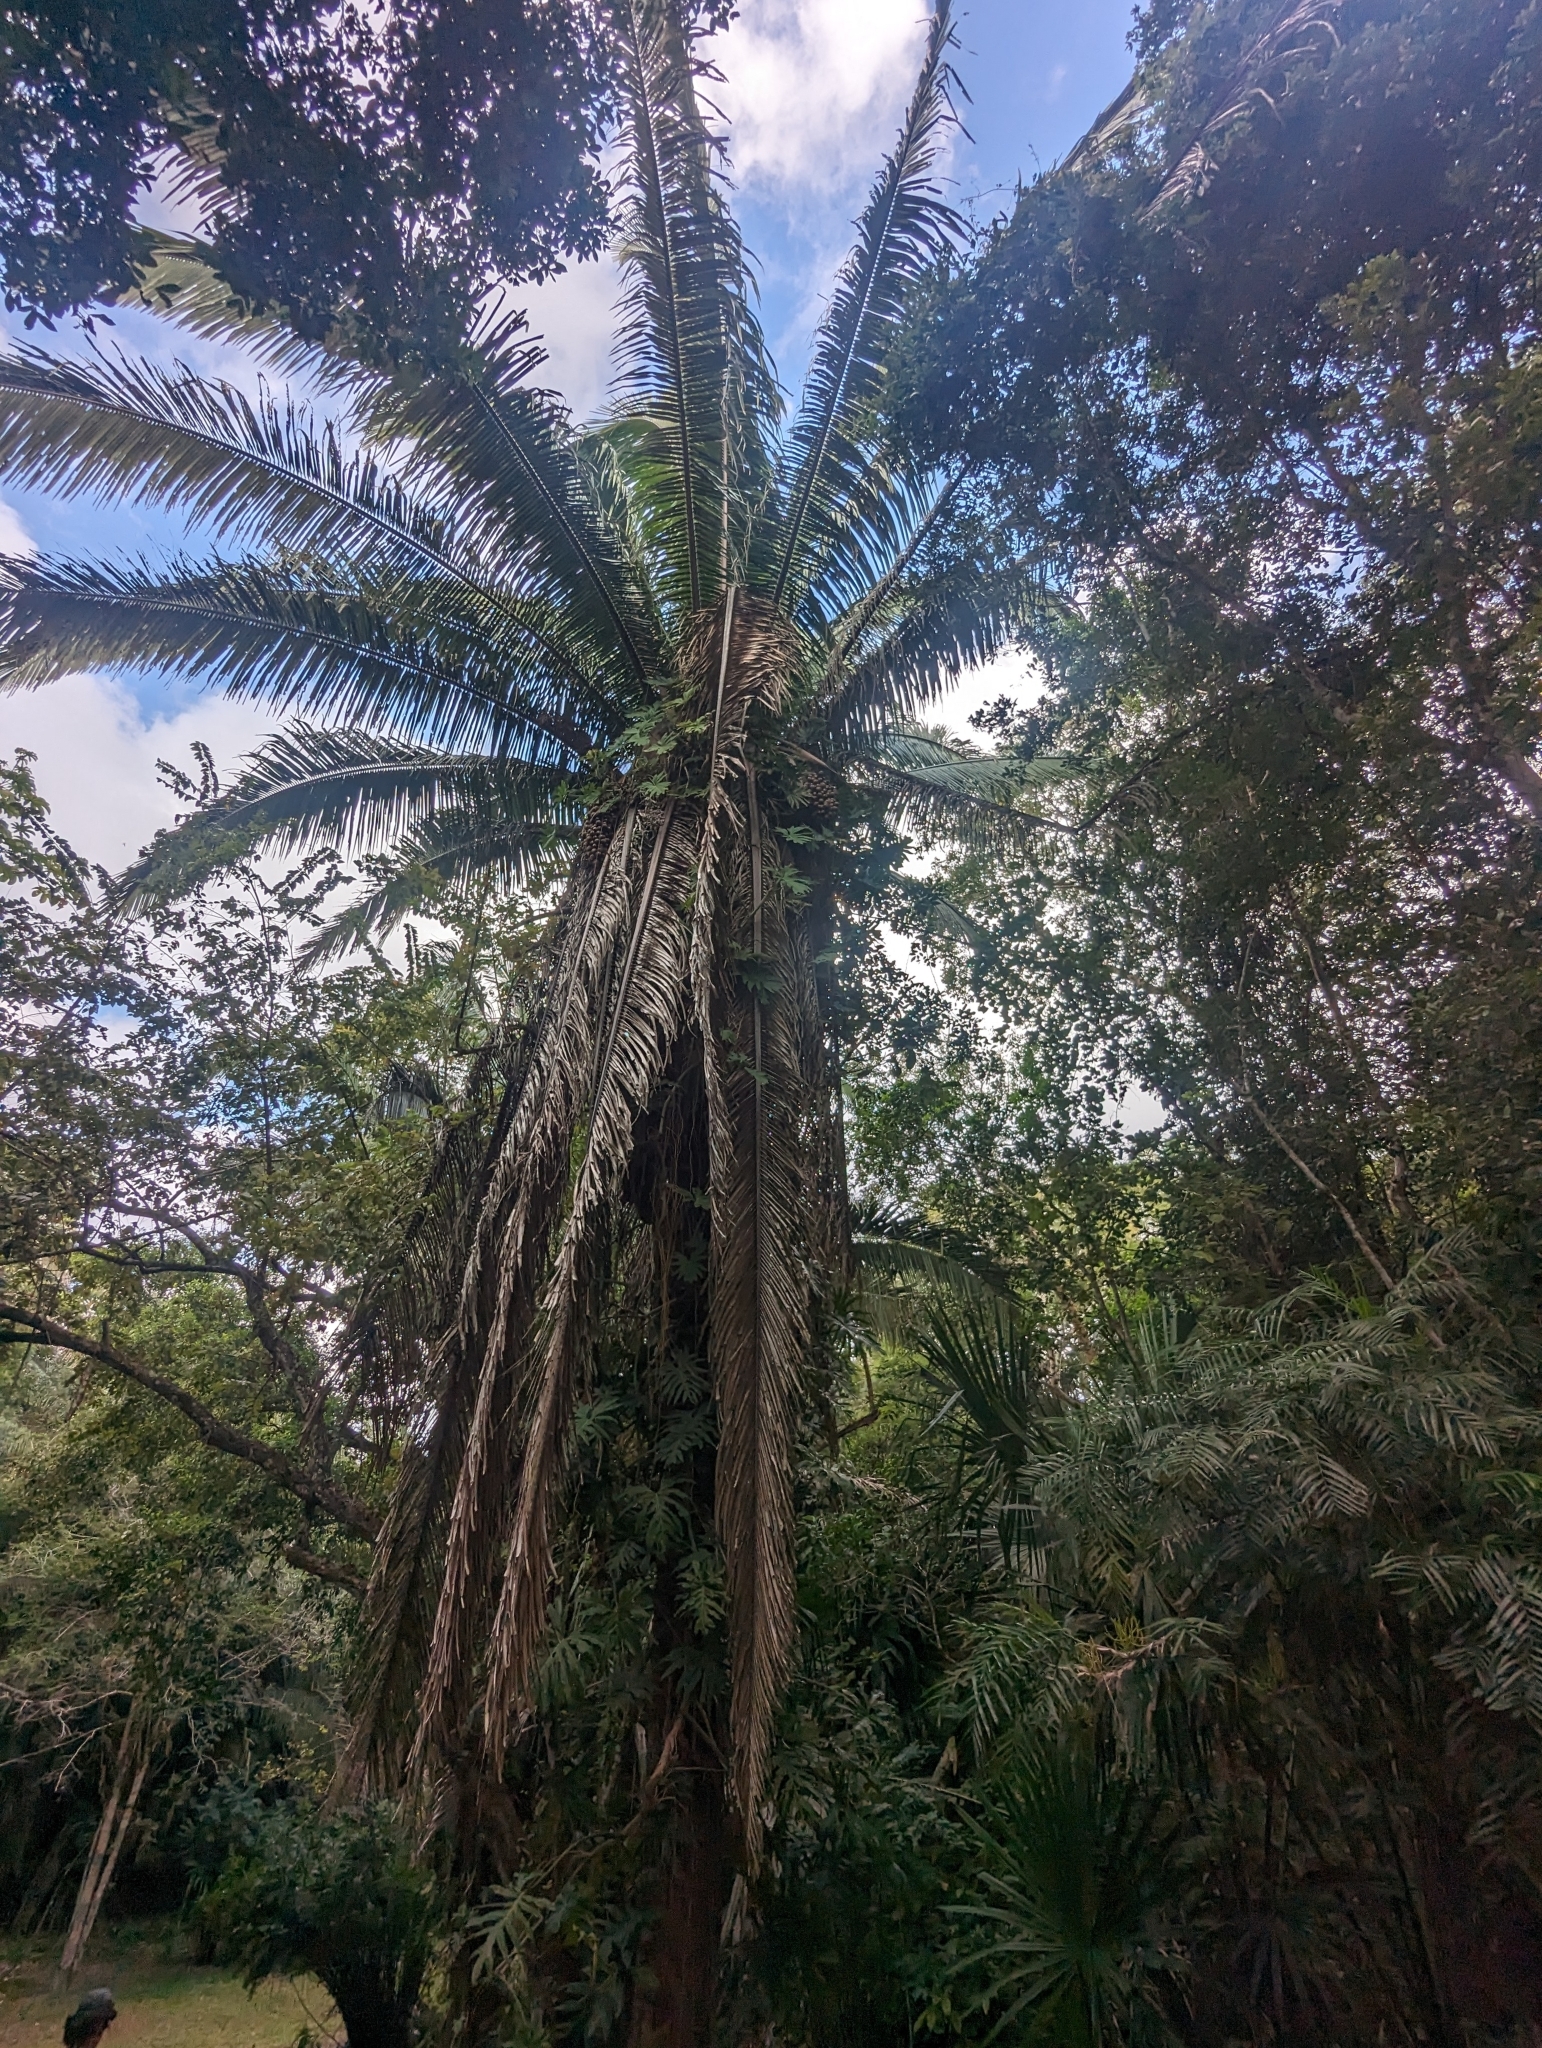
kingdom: Plantae
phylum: Tracheophyta
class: Liliopsida
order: Arecales
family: Arecaceae
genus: Attalea
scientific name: Attalea cohune
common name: Cohune palm
